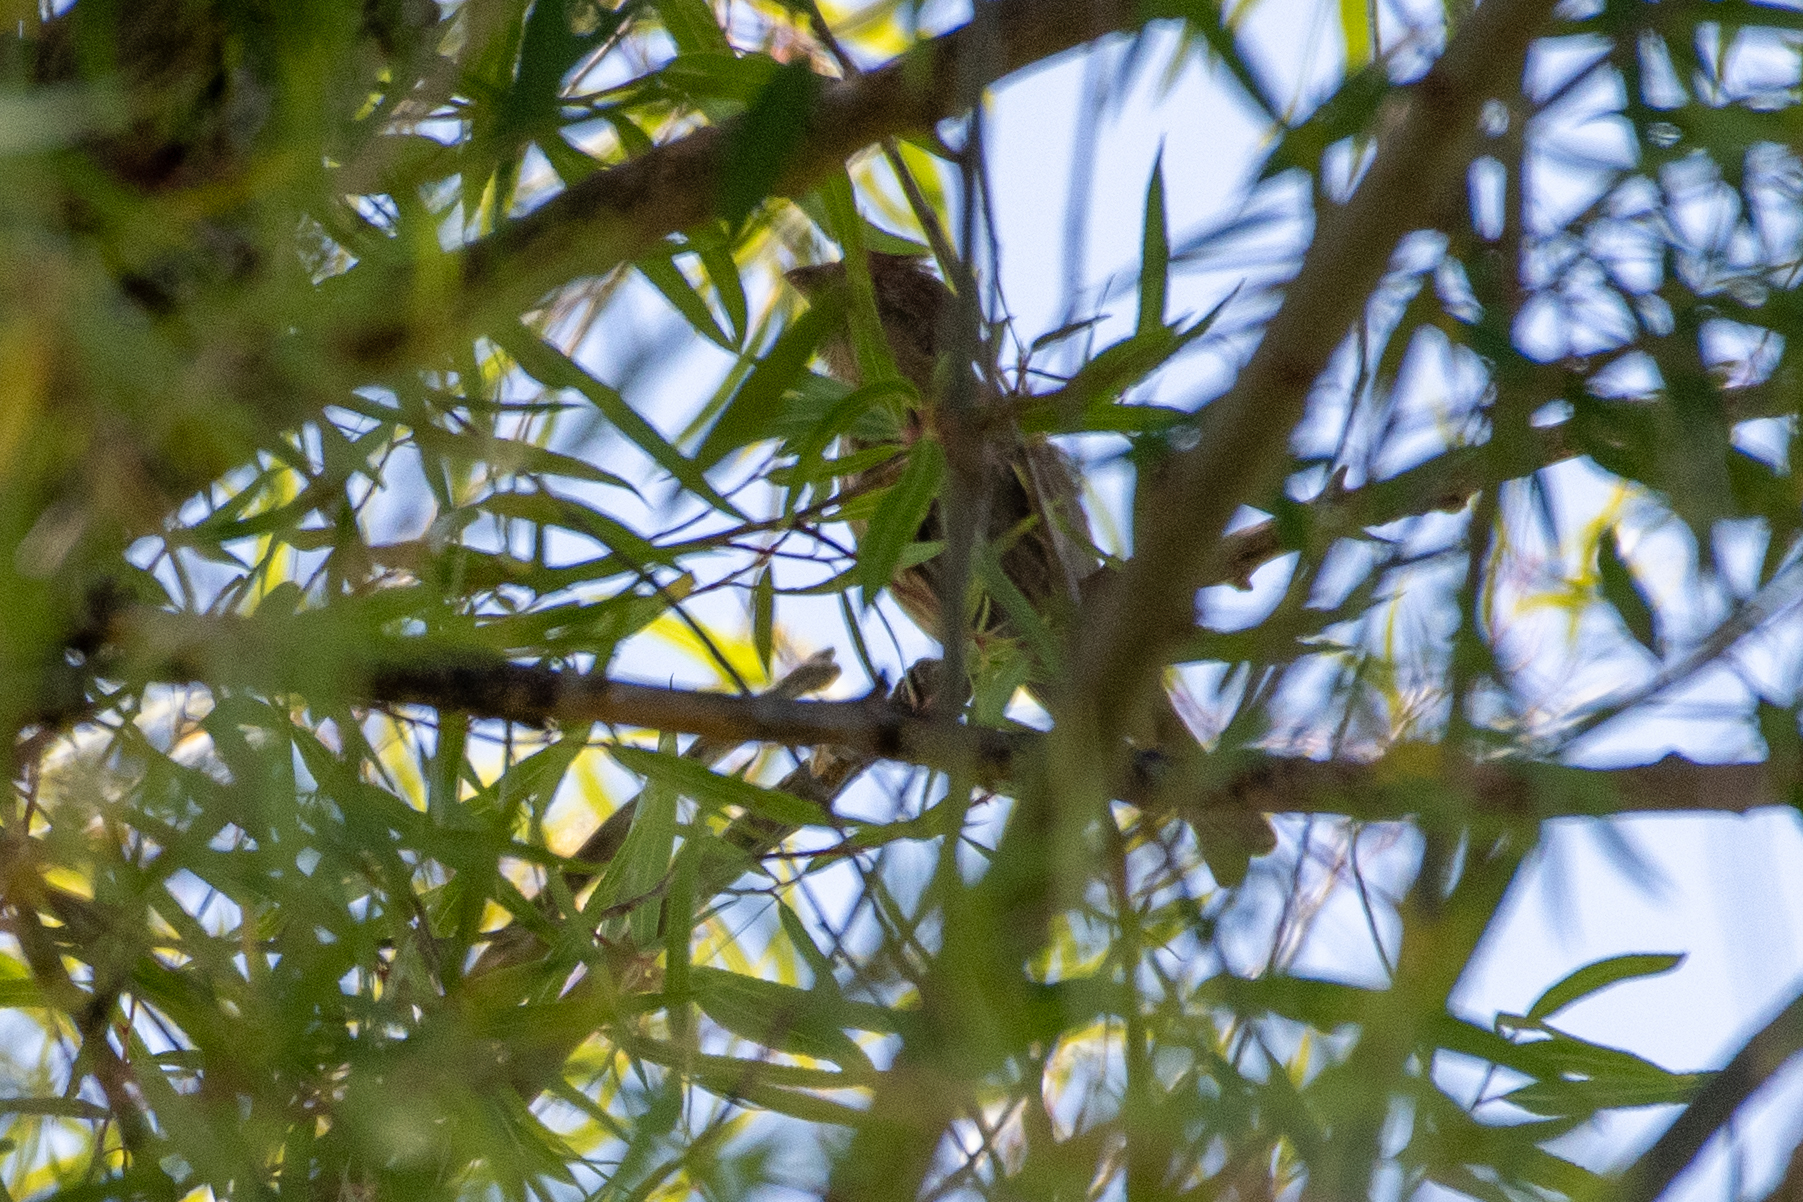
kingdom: Animalia
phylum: Chordata
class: Aves
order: Passeriformes
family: Fringillidae
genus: Haemorhous
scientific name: Haemorhous mexicanus
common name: House finch
